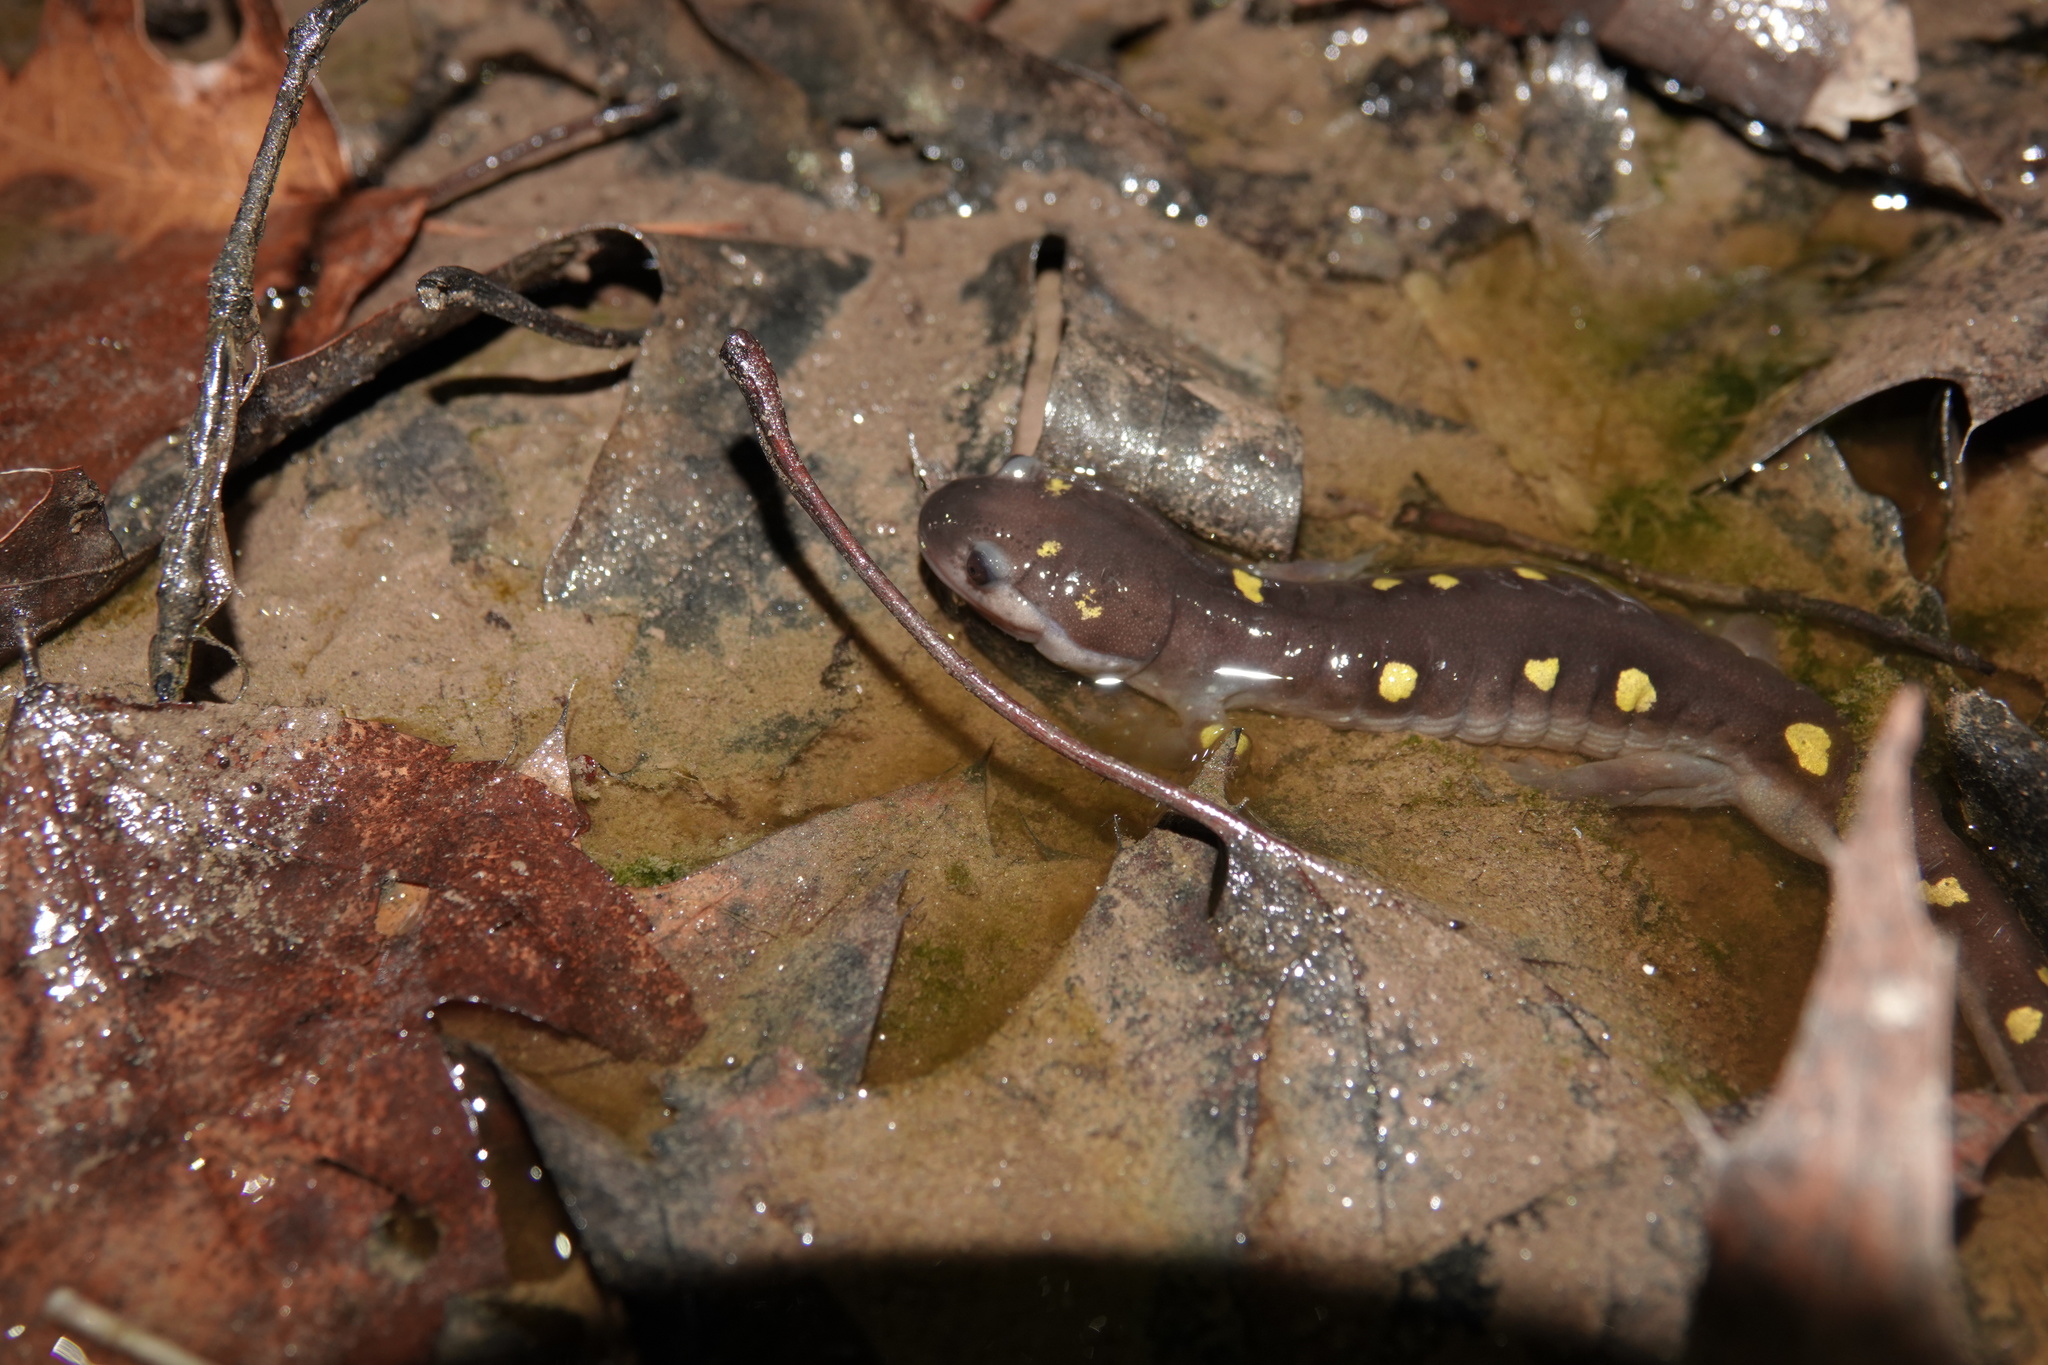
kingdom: Animalia
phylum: Chordata
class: Amphibia
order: Caudata
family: Ambystomatidae
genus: Ambystoma
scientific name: Ambystoma maculatum
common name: Spotted salamander
